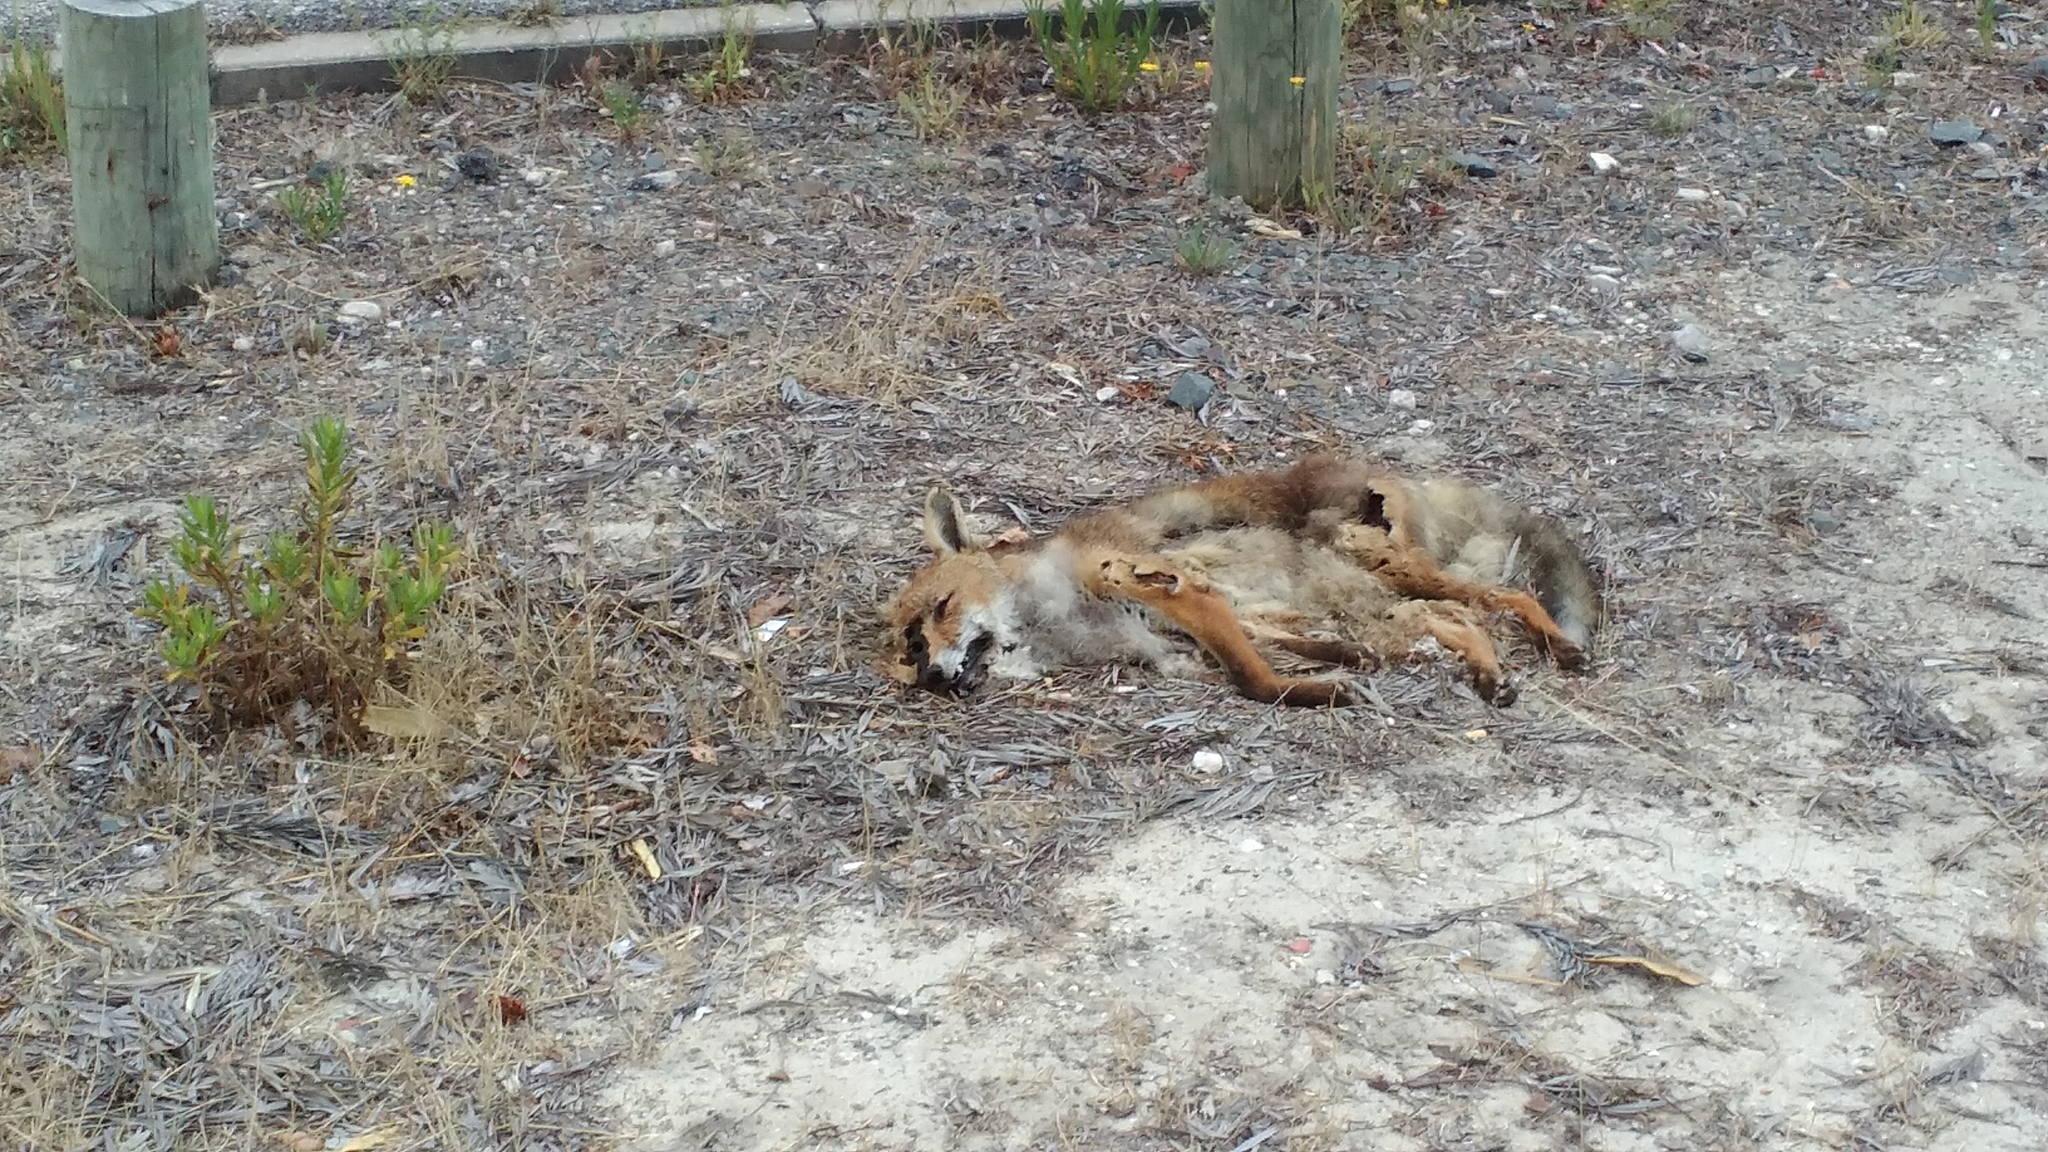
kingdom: Animalia
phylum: Chordata
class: Mammalia
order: Carnivora
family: Canidae
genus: Vulpes
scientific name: Vulpes vulpes
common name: Red fox
